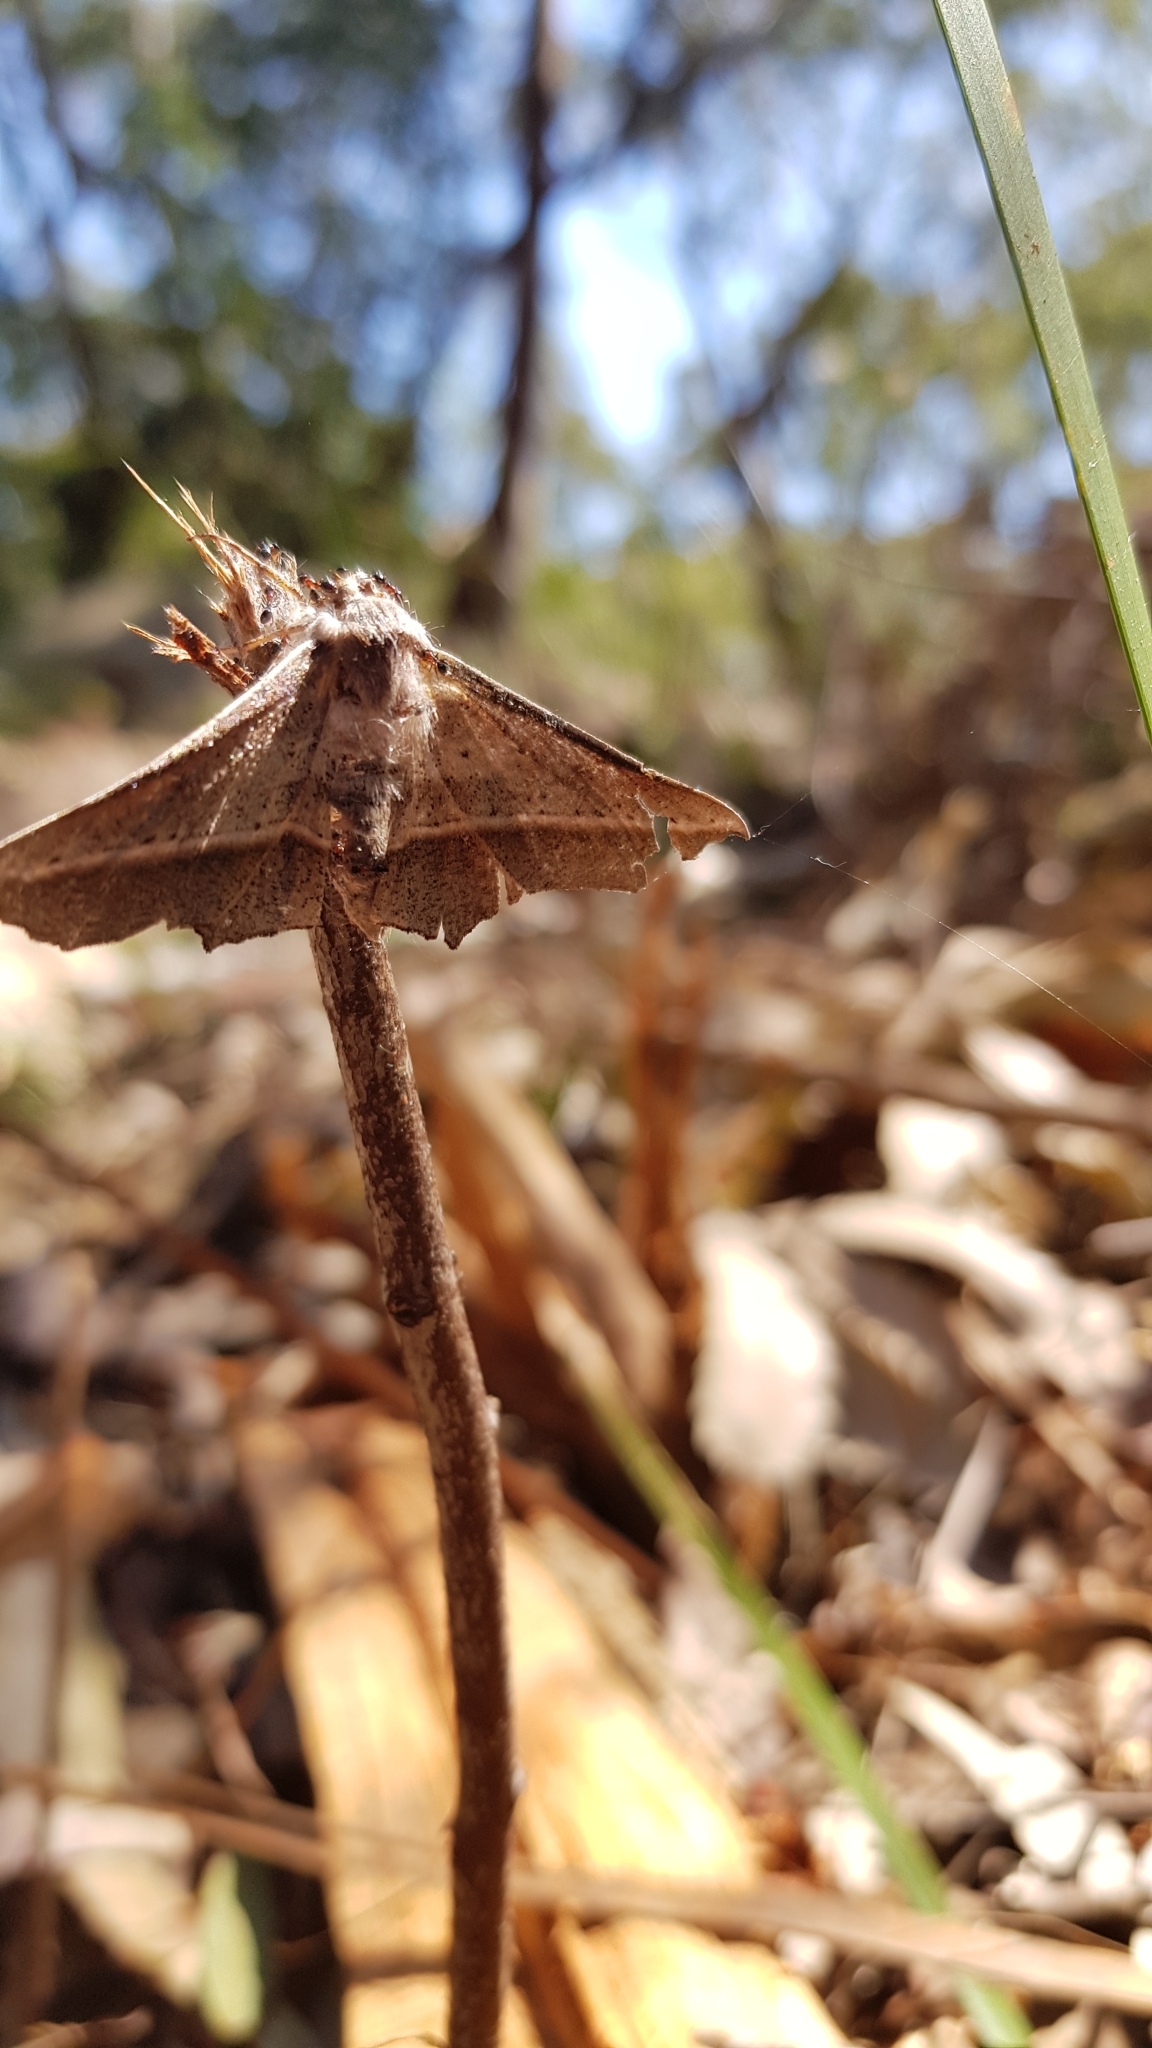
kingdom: Animalia
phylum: Arthropoda
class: Insecta
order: Lepidoptera
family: Geometridae
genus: Oenochroma
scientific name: Oenochroma vetustaria
